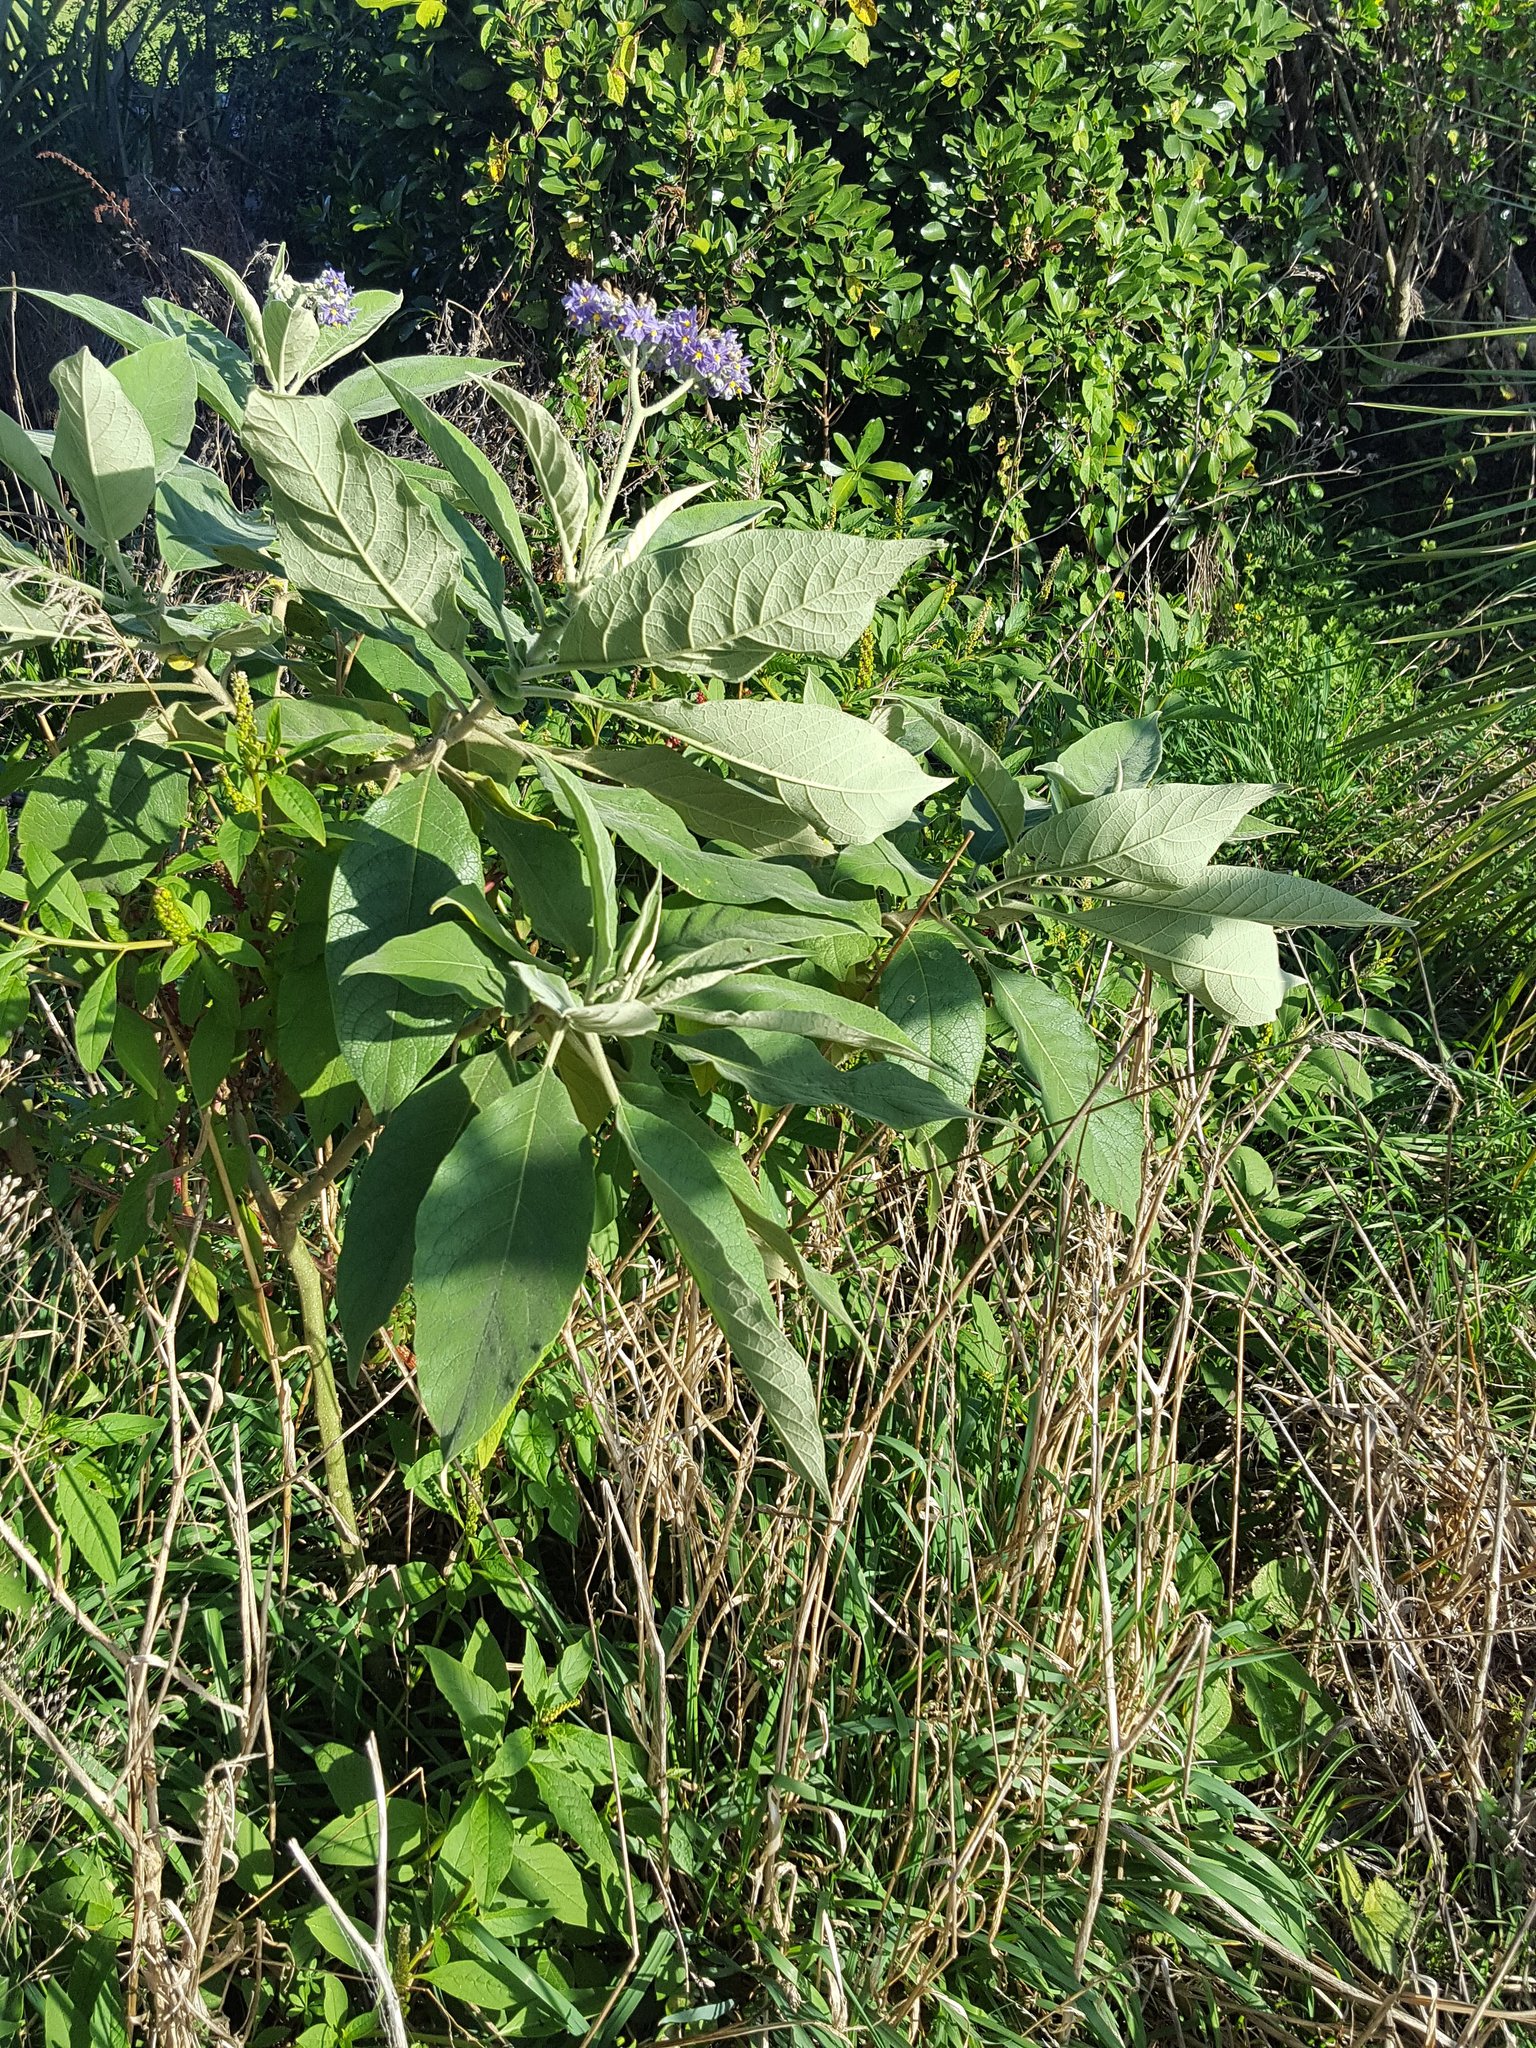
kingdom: Plantae
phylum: Tracheophyta
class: Magnoliopsida
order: Solanales
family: Solanaceae
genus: Solanum
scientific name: Solanum mauritianum
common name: Earleaf nightshade
